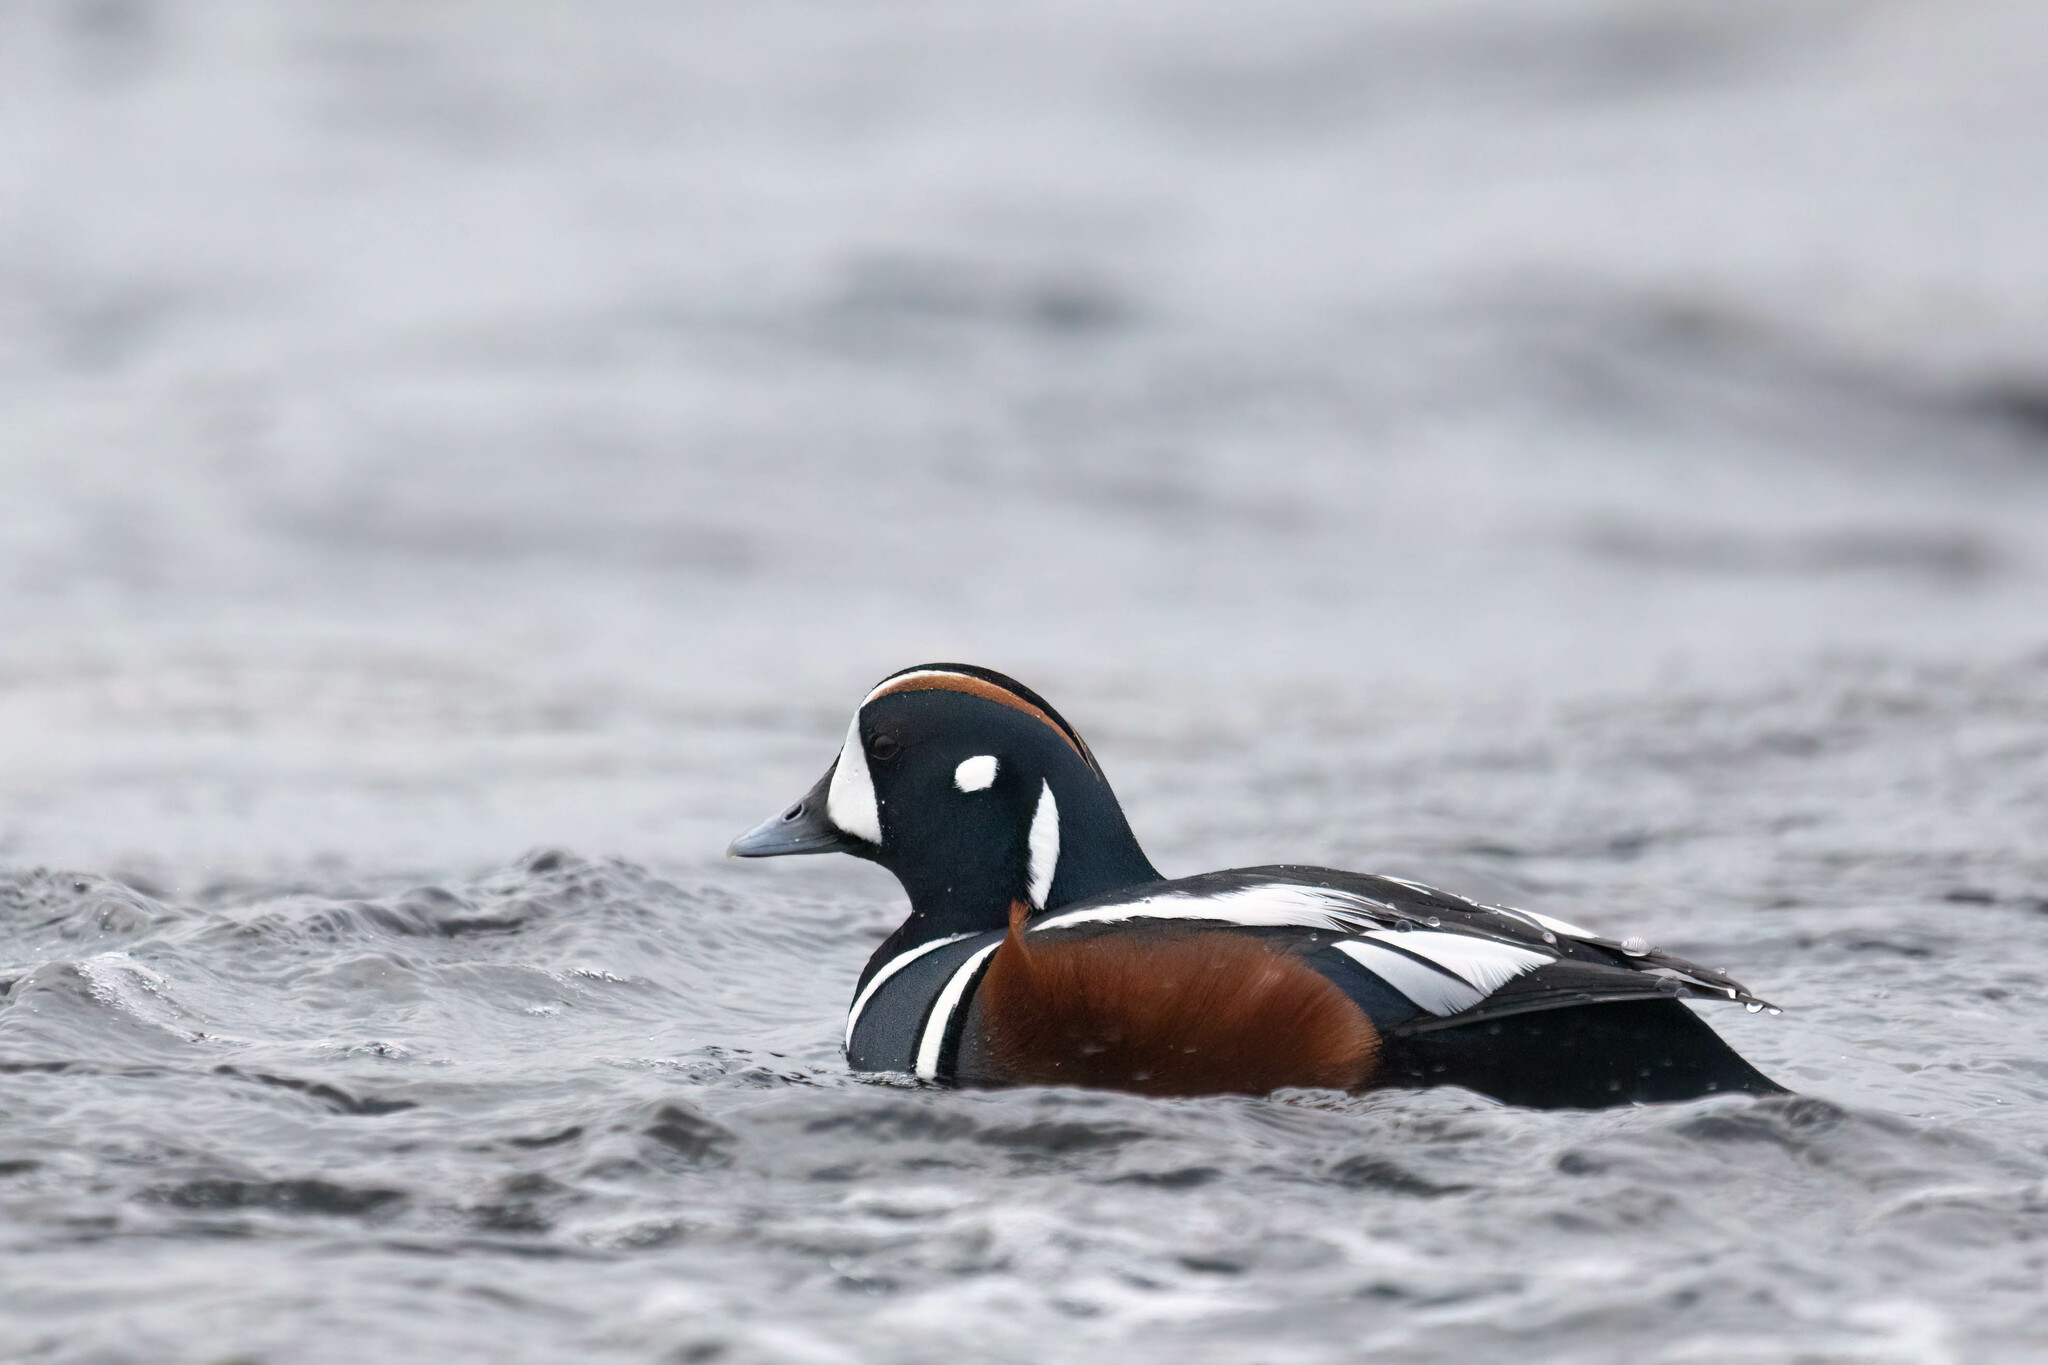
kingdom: Animalia
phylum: Chordata
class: Aves
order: Anseriformes
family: Anatidae
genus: Histrionicus
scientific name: Histrionicus histrionicus
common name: Harlequin duck
